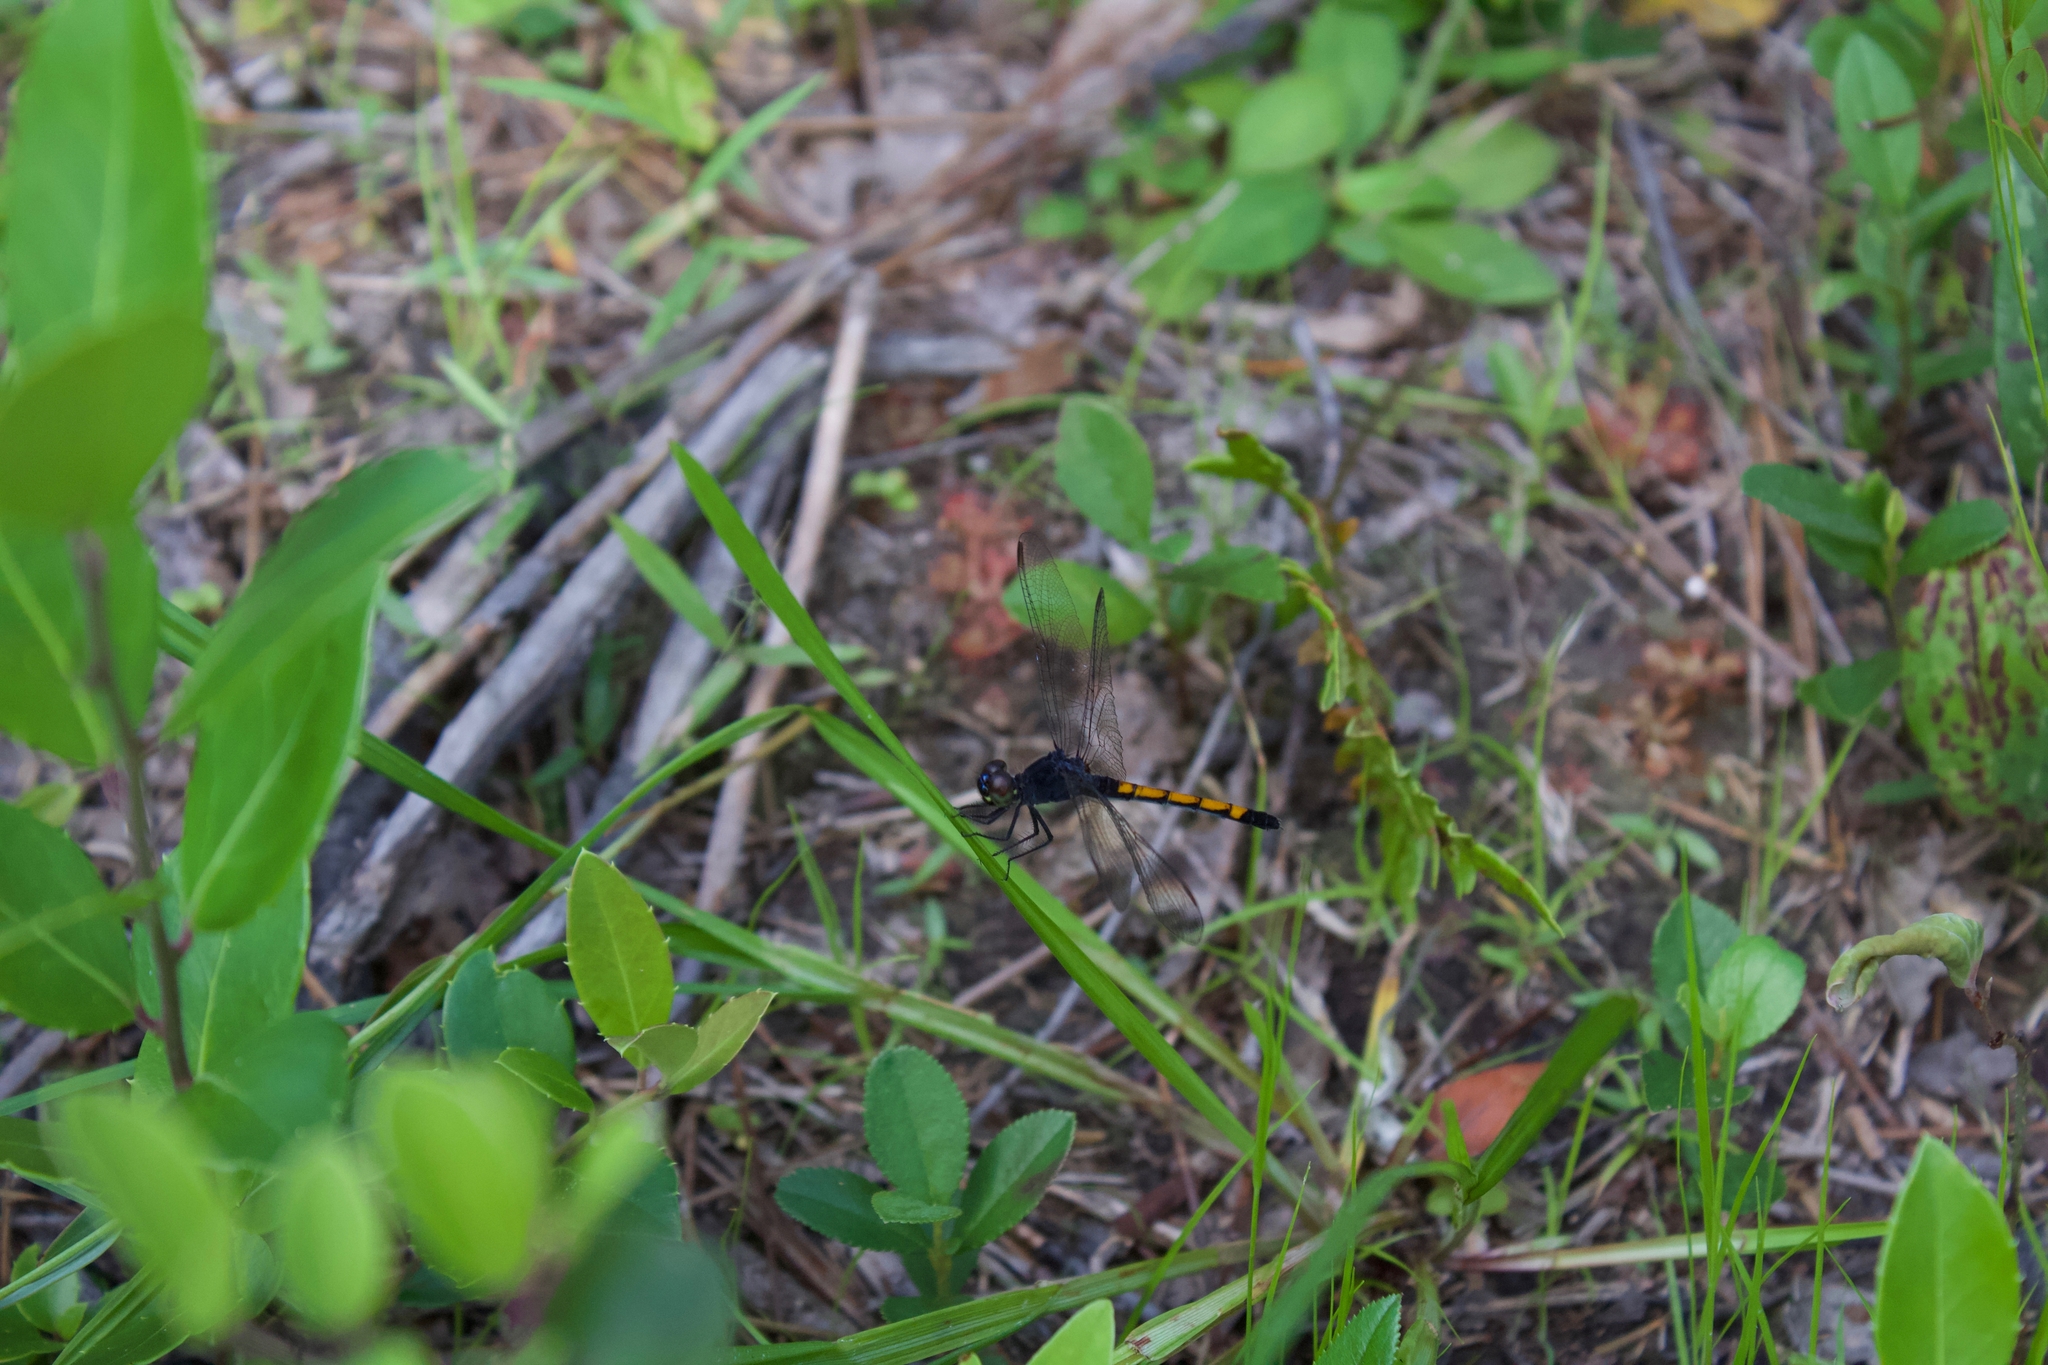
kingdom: Animalia
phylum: Arthropoda
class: Insecta
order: Odonata
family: Libellulidae
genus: Erythrodiplax
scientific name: Erythrodiplax berenice
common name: Seaside dragonlet
